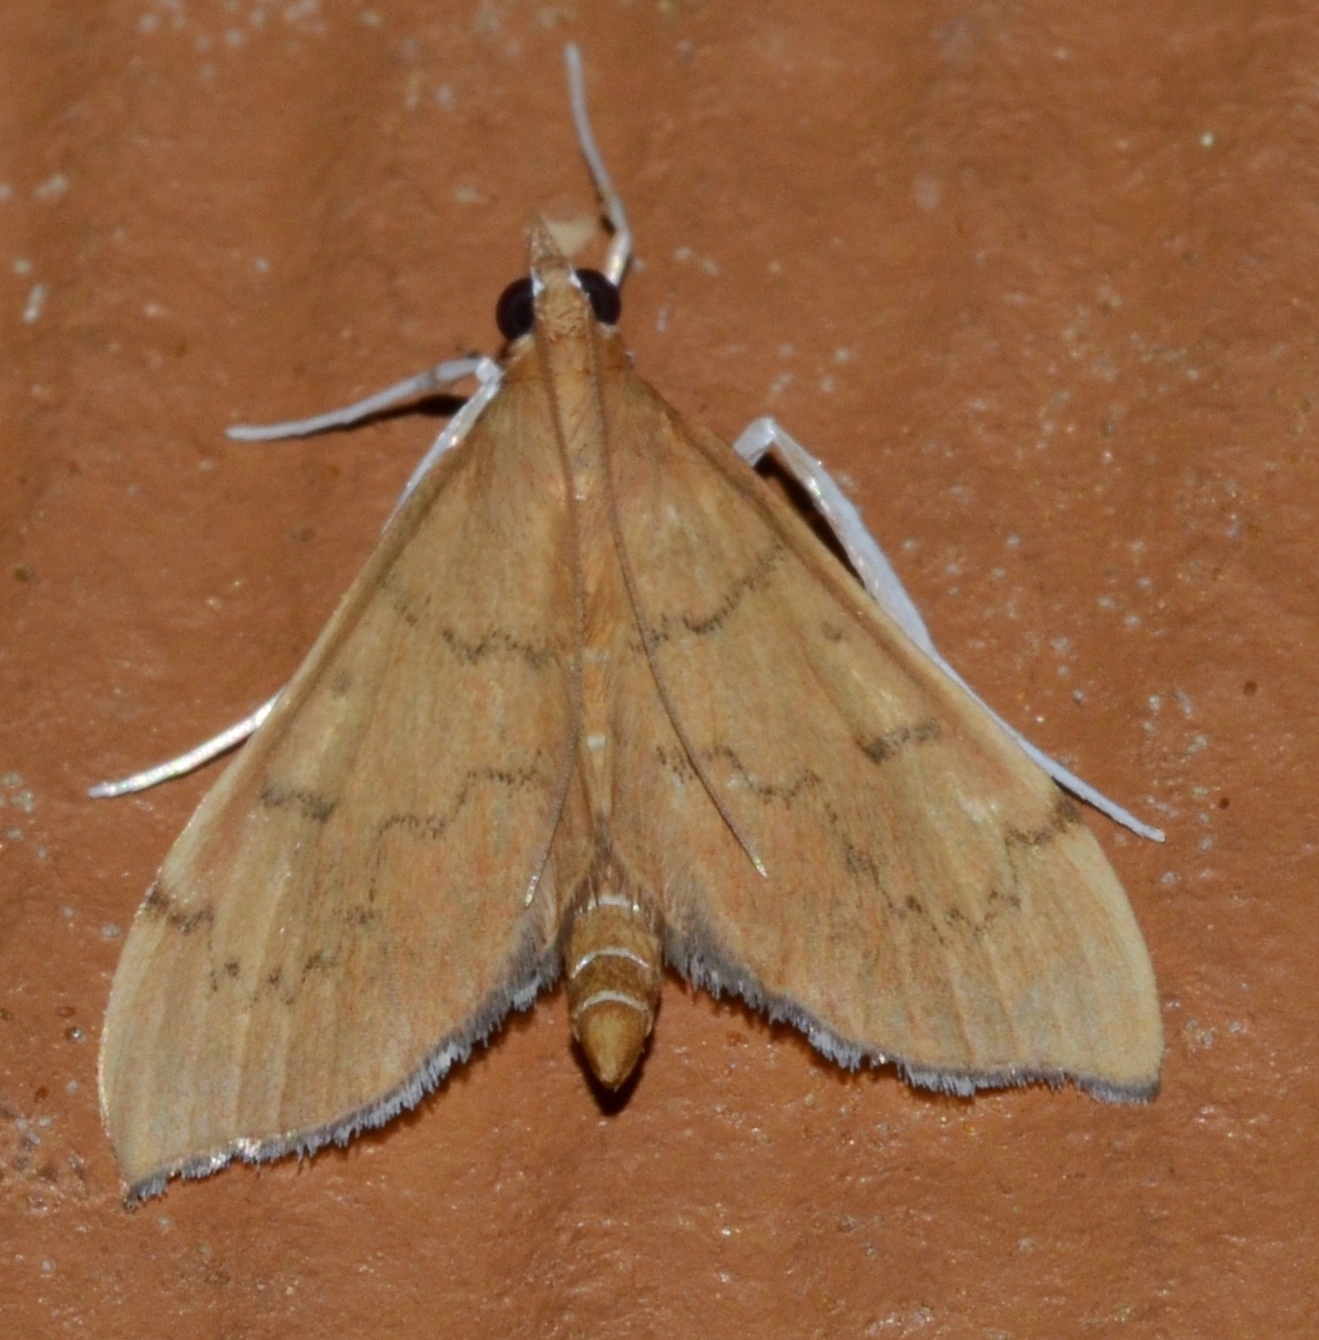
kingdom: Animalia
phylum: Arthropoda
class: Insecta
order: Lepidoptera
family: Crambidae
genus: Sericoplaga
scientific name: Sericoplaga externalis
